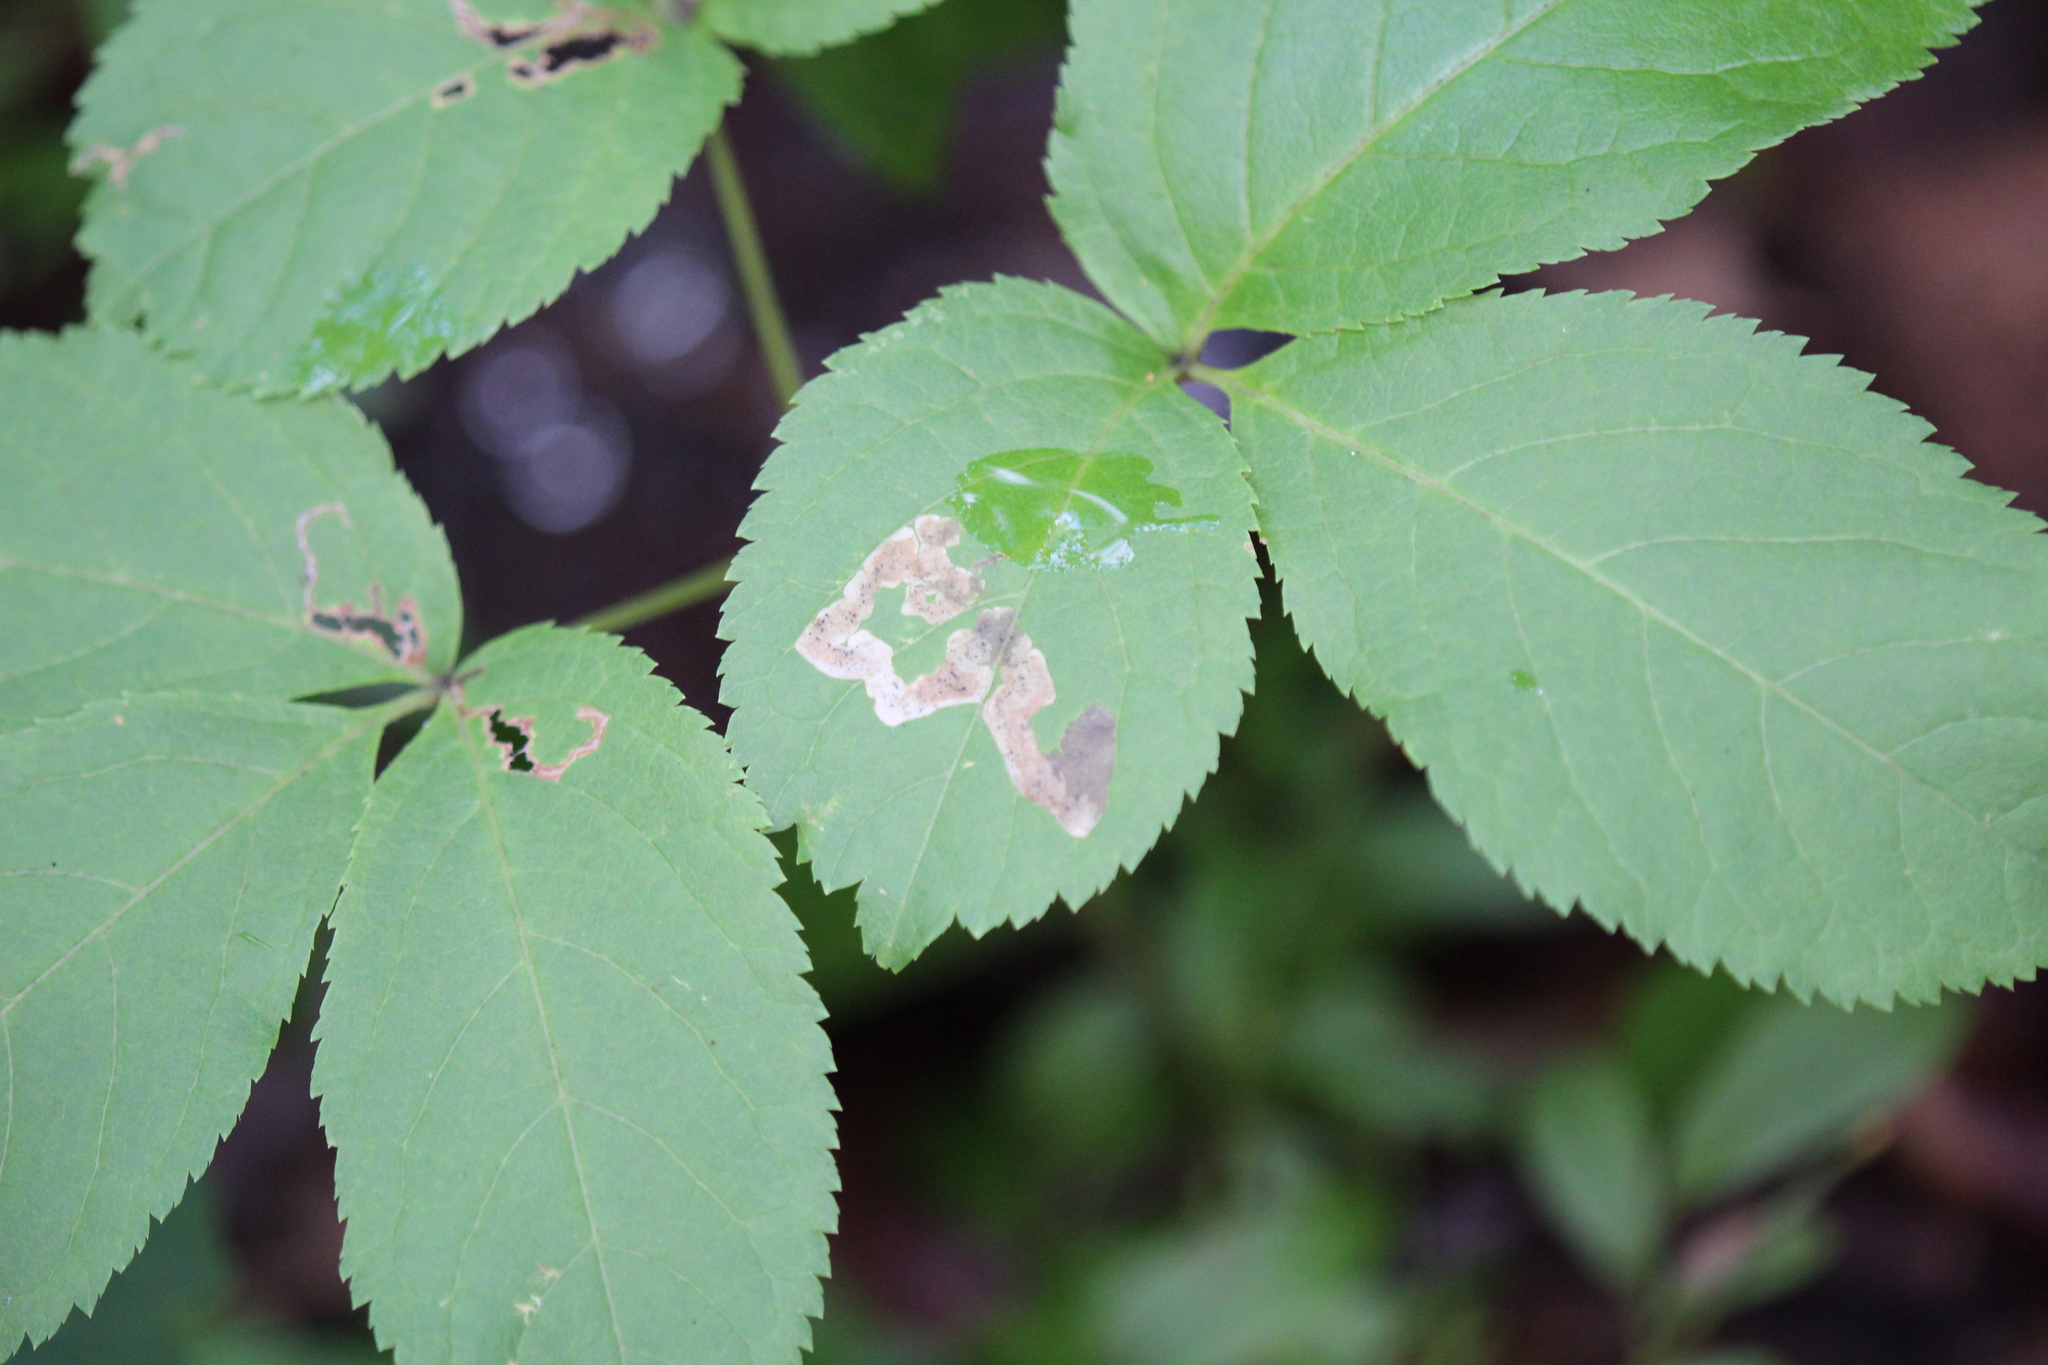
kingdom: Plantae
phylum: Tracheophyta
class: Magnoliopsida
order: Apiales
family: Araliaceae
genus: Aralia
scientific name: Aralia nudicaulis
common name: Wild sarsaparilla
